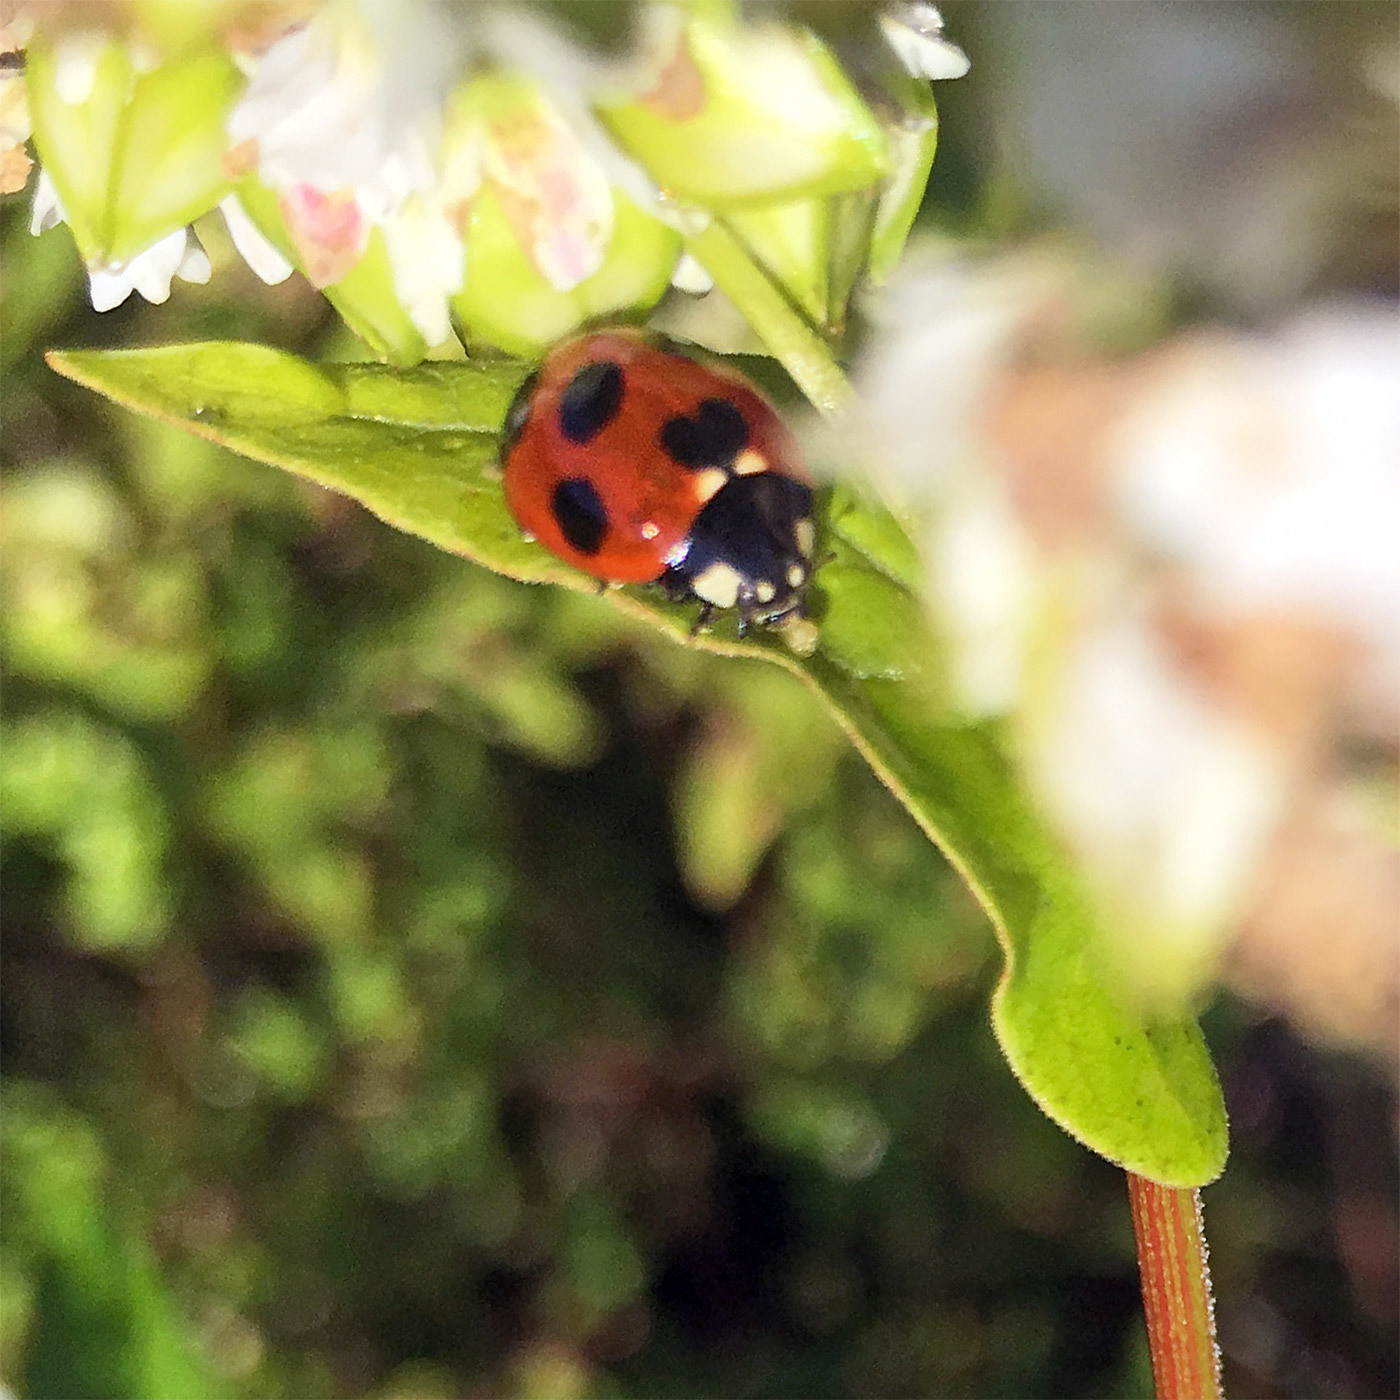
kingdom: Animalia
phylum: Arthropoda
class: Insecta
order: Coleoptera
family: Coccinellidae
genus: Coccinella
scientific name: Coccinella septempunctata
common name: Sevenspotted lady beetle
